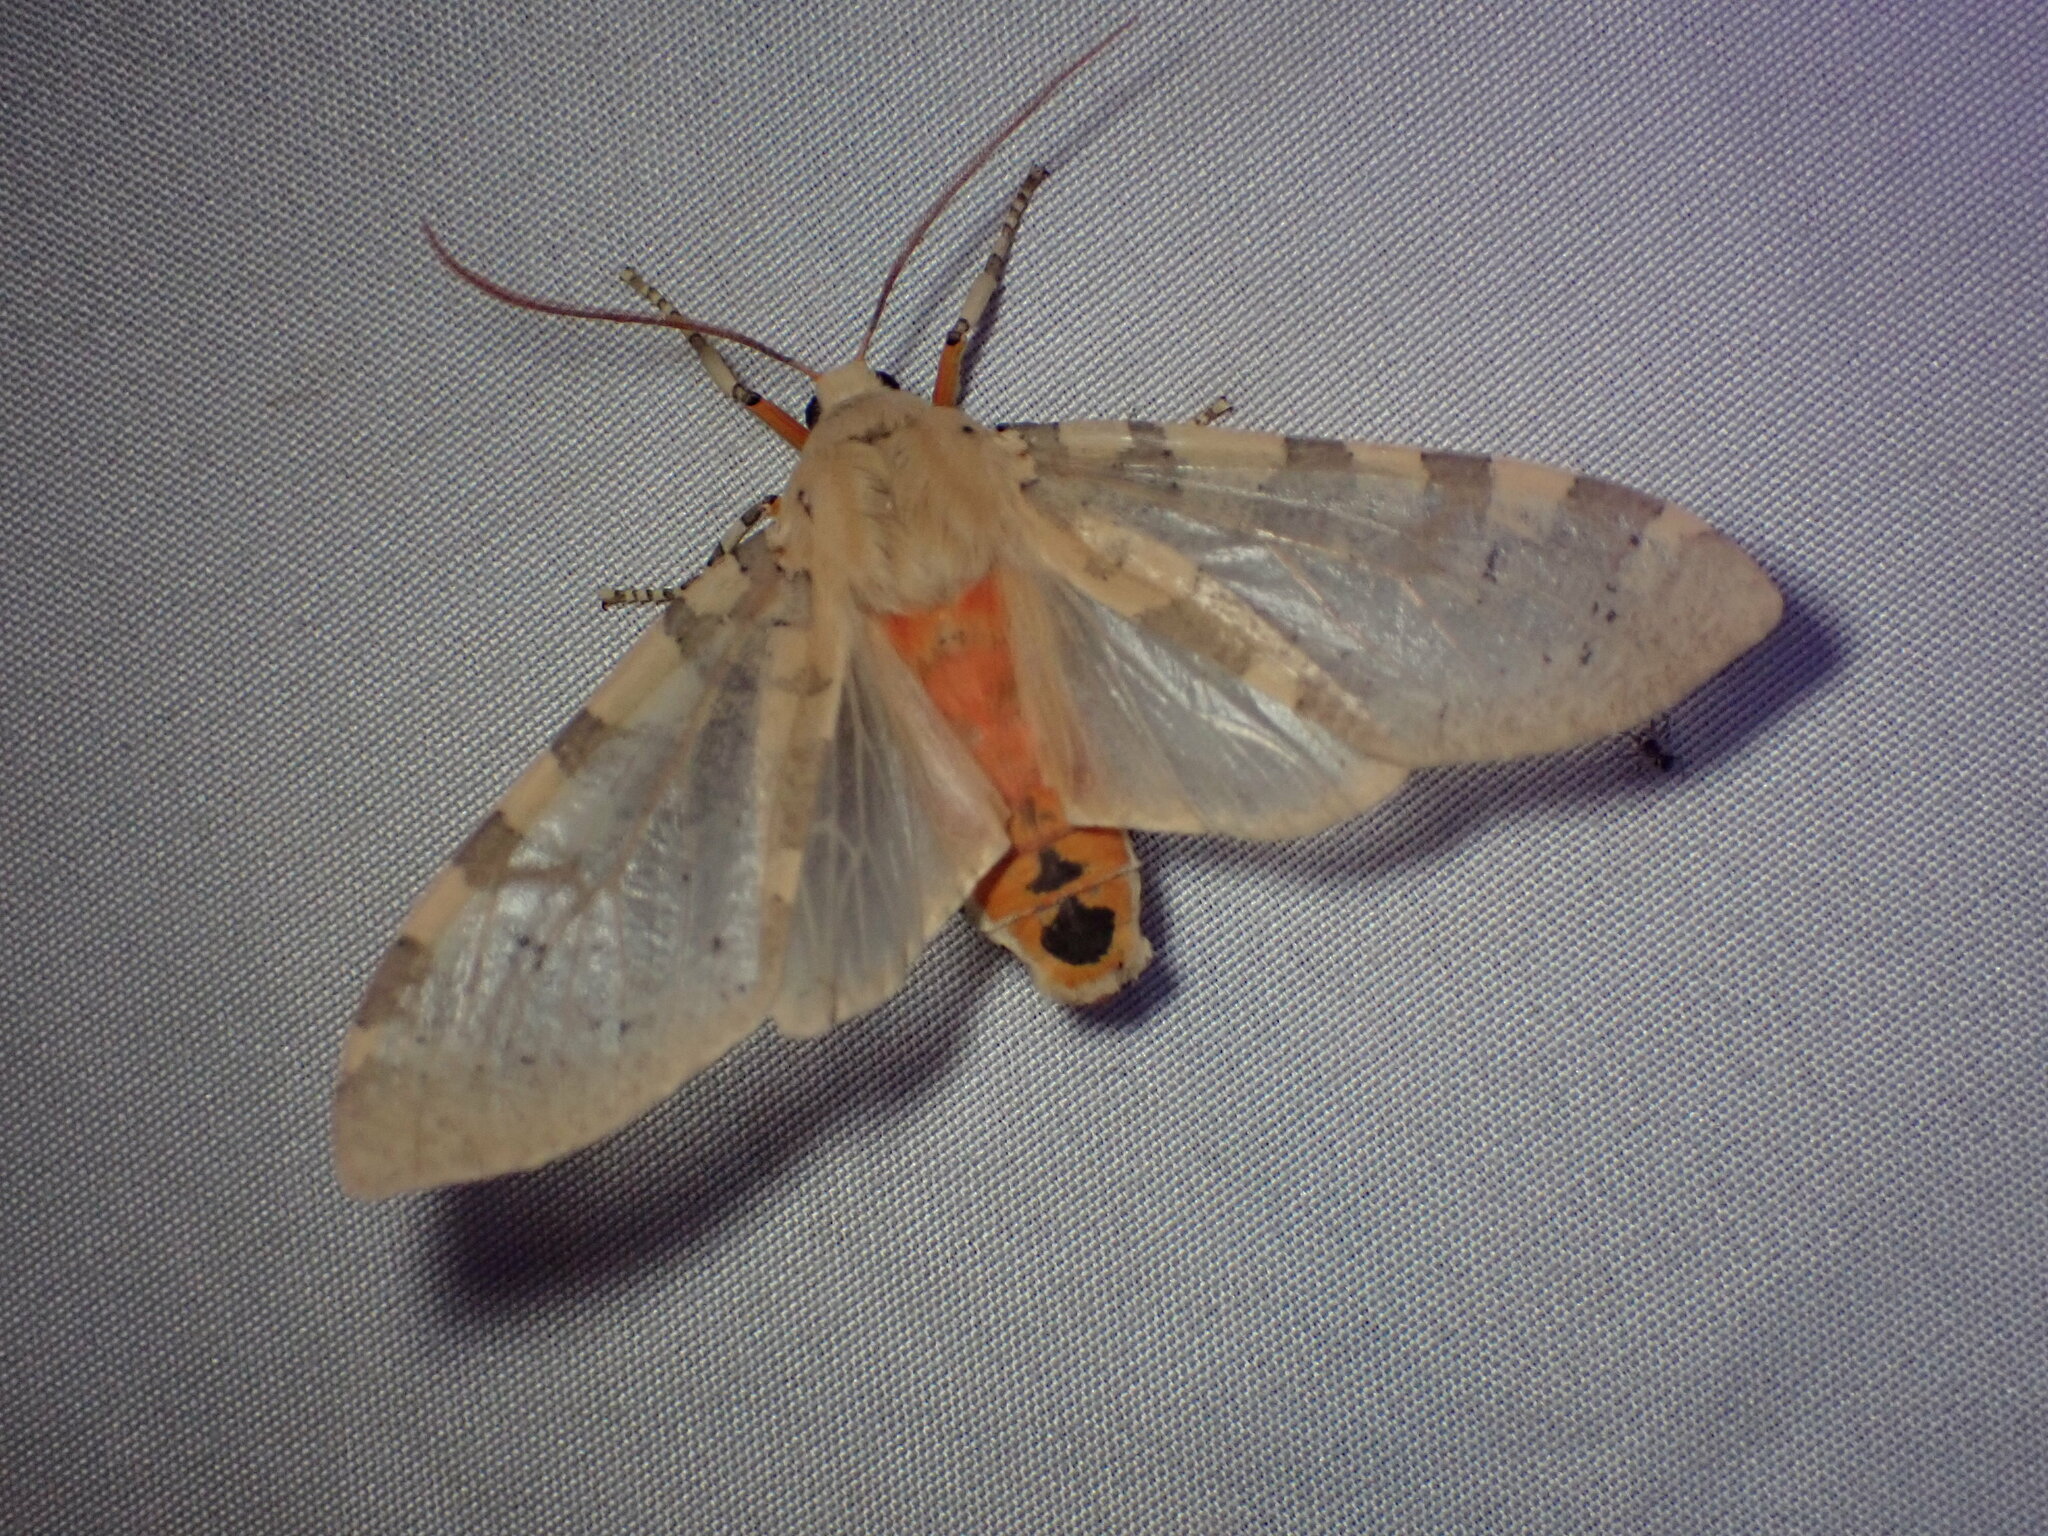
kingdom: Animalia
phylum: Arthropoda
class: Insecta
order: Lepidoptera
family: Erebidae
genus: Hemihyalea
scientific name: Hemihyalea edwardsii
